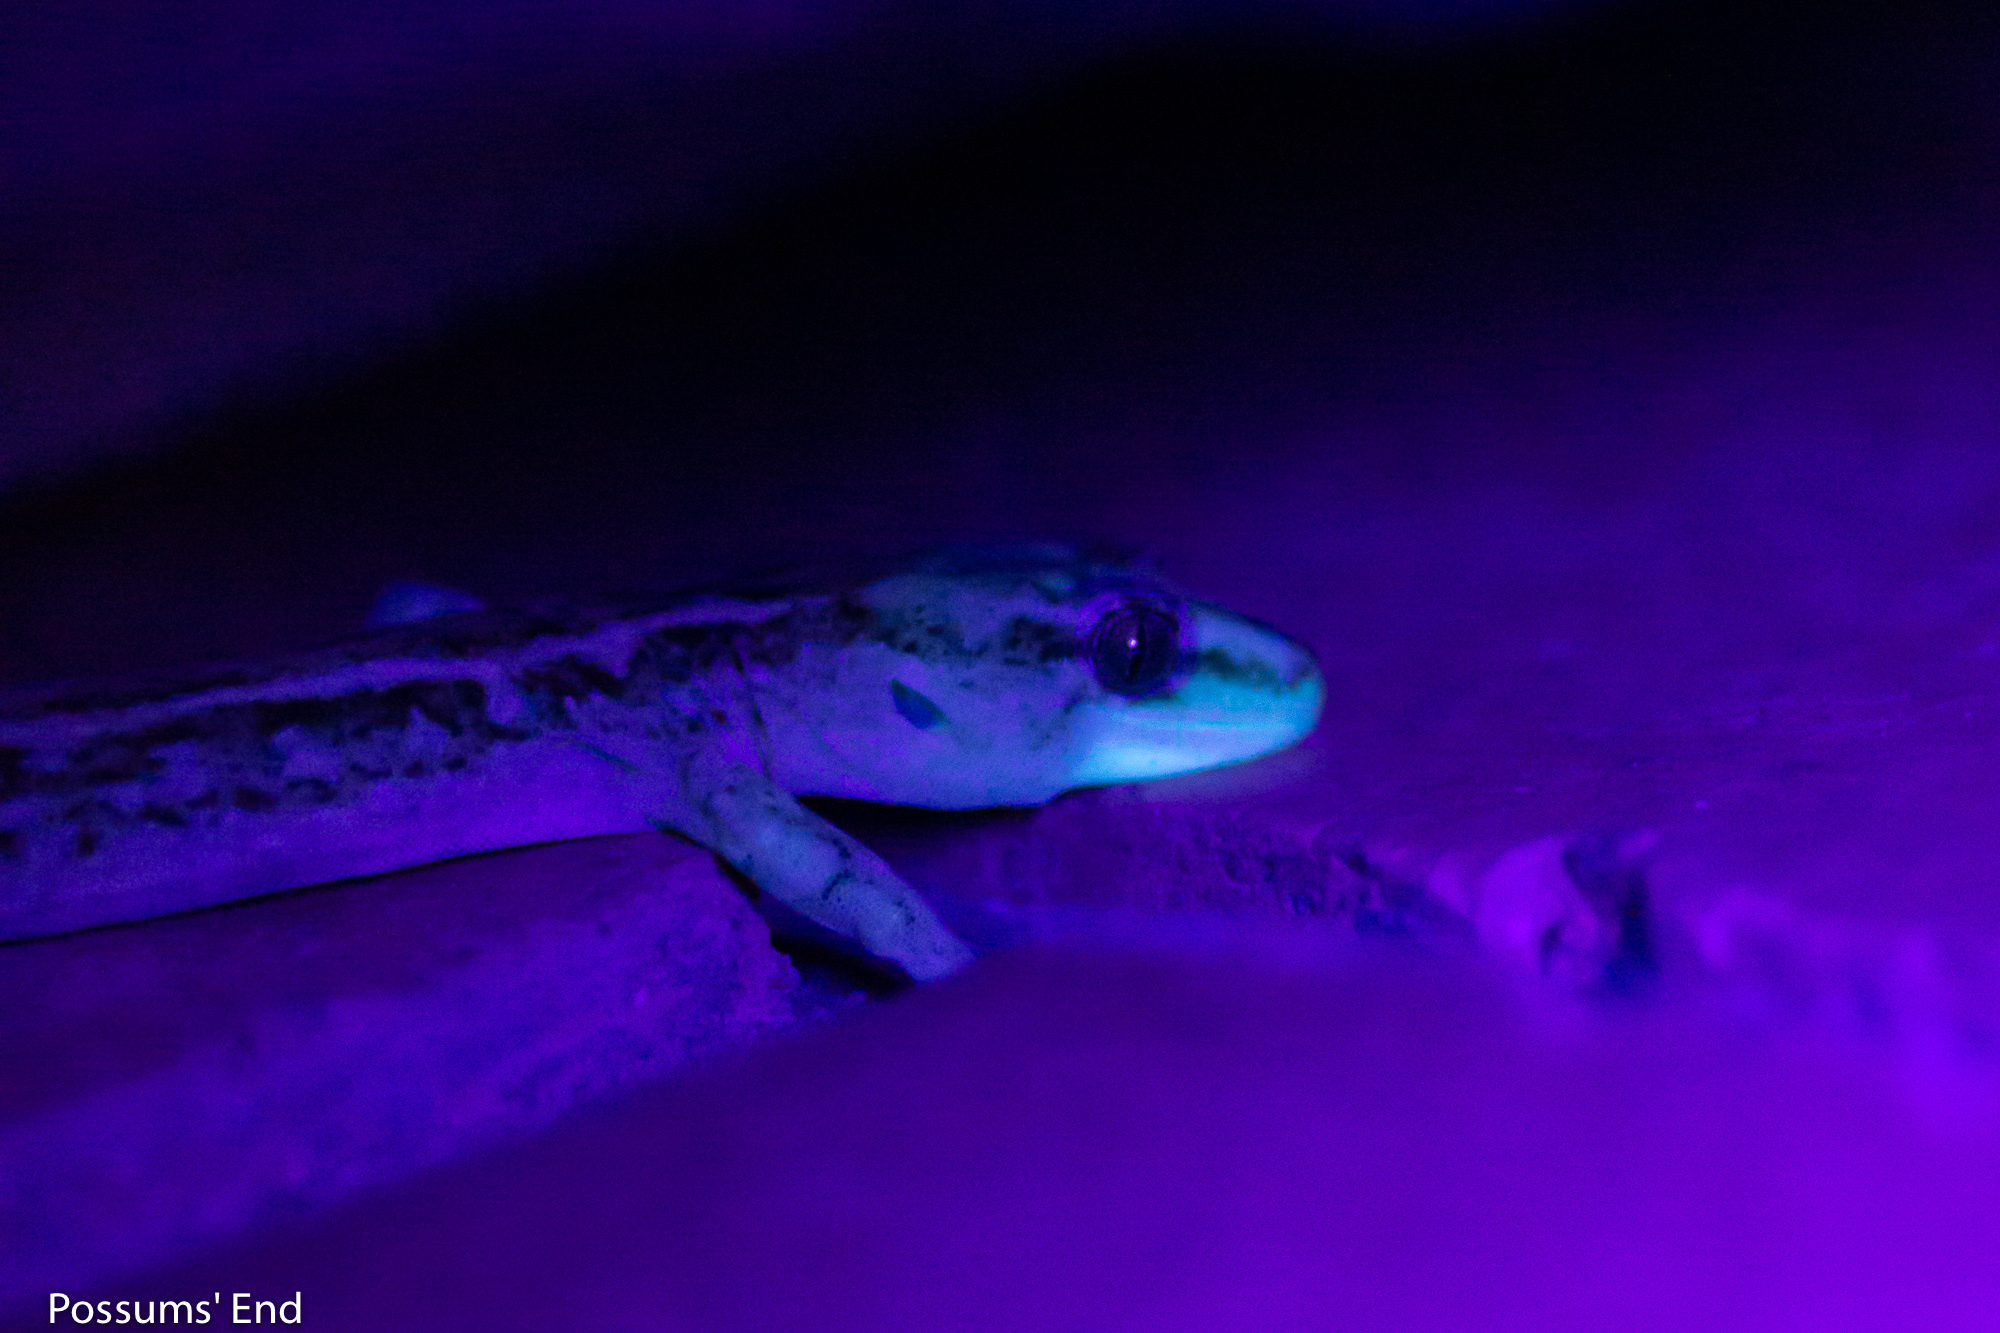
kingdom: Animalia
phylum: Chordata
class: Squamata
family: Diplodactylidae
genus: Woodworthia
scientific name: Woodworthia
